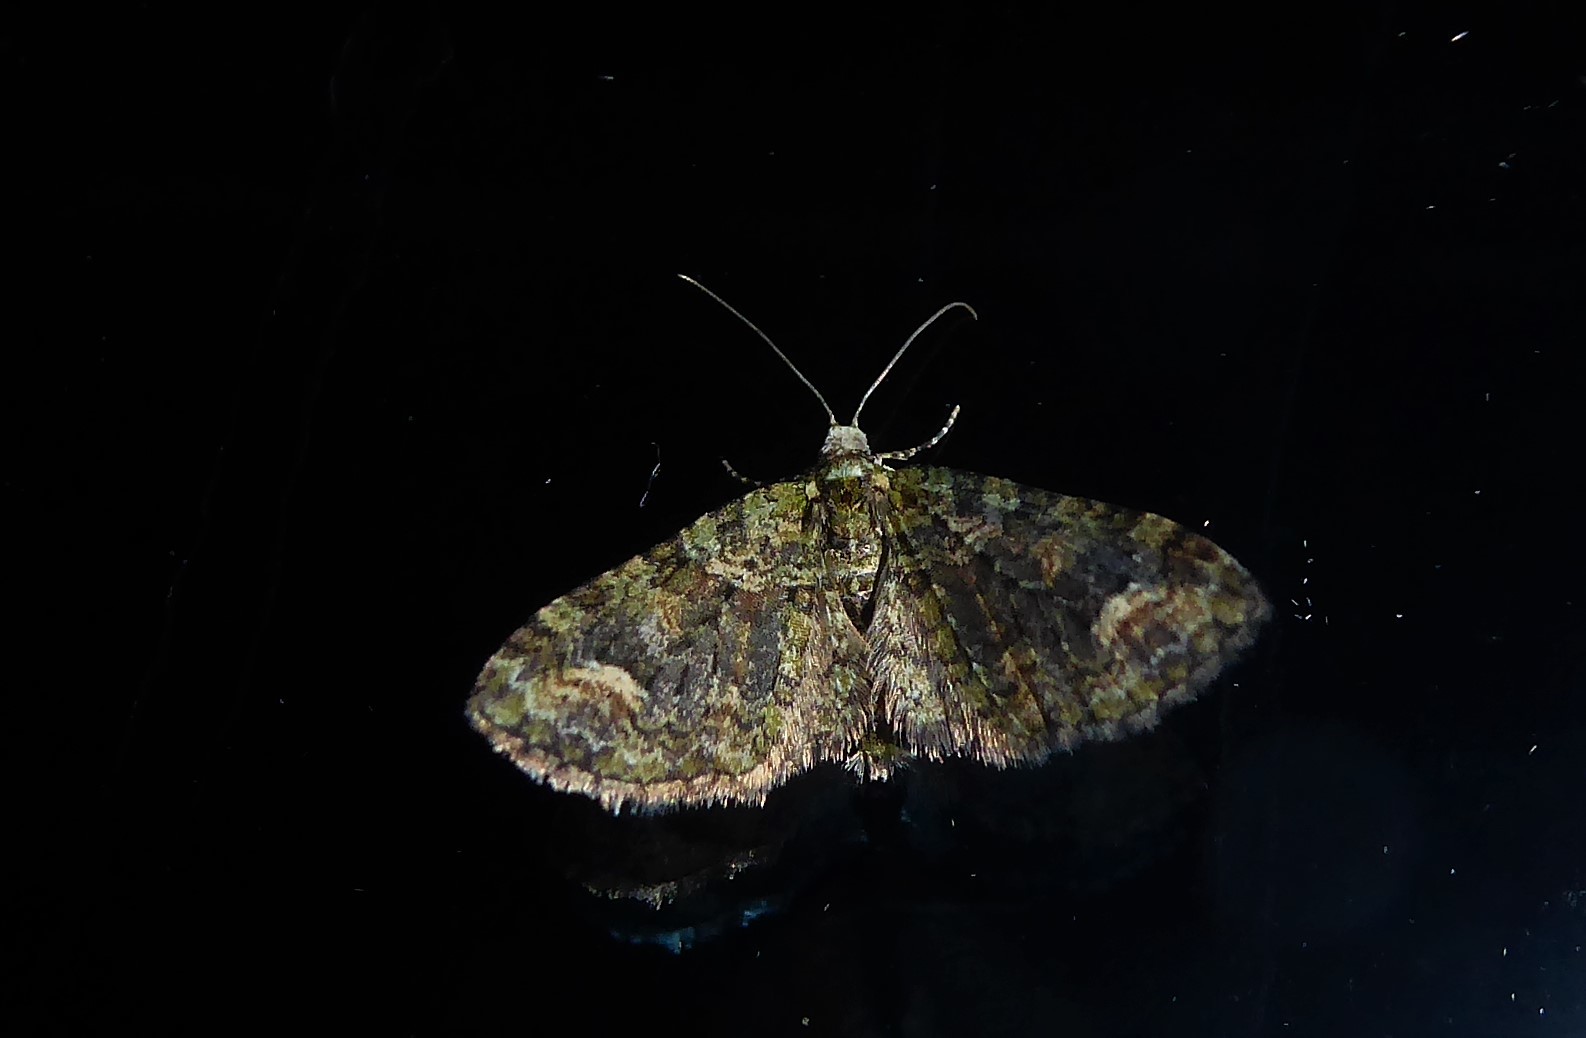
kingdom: Animalia
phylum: Arthropoda
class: Insecta
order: Lepidoptera
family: Geometridae
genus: Idaea
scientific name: Idaea mutanda
